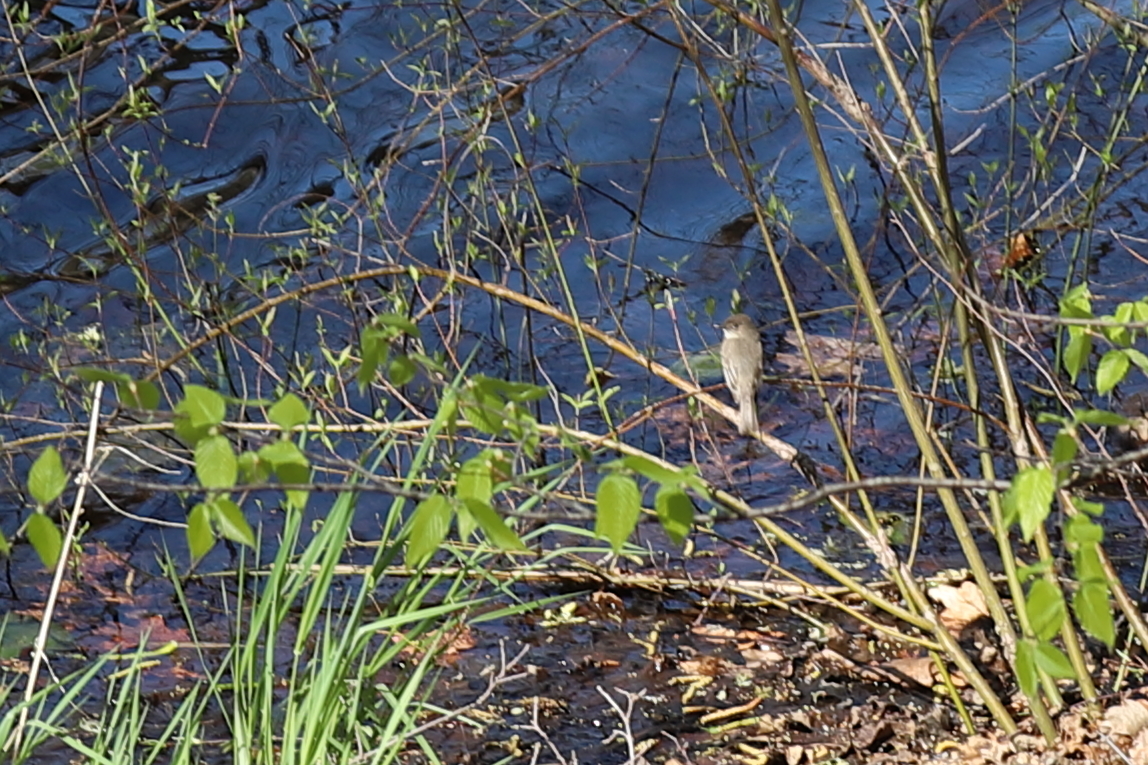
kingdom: Animalia
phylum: Chordata
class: Aves
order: Passeriformes
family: Tyrannidae
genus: Sayornis
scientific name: Sayornis phoebe
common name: Eastern phoebe
